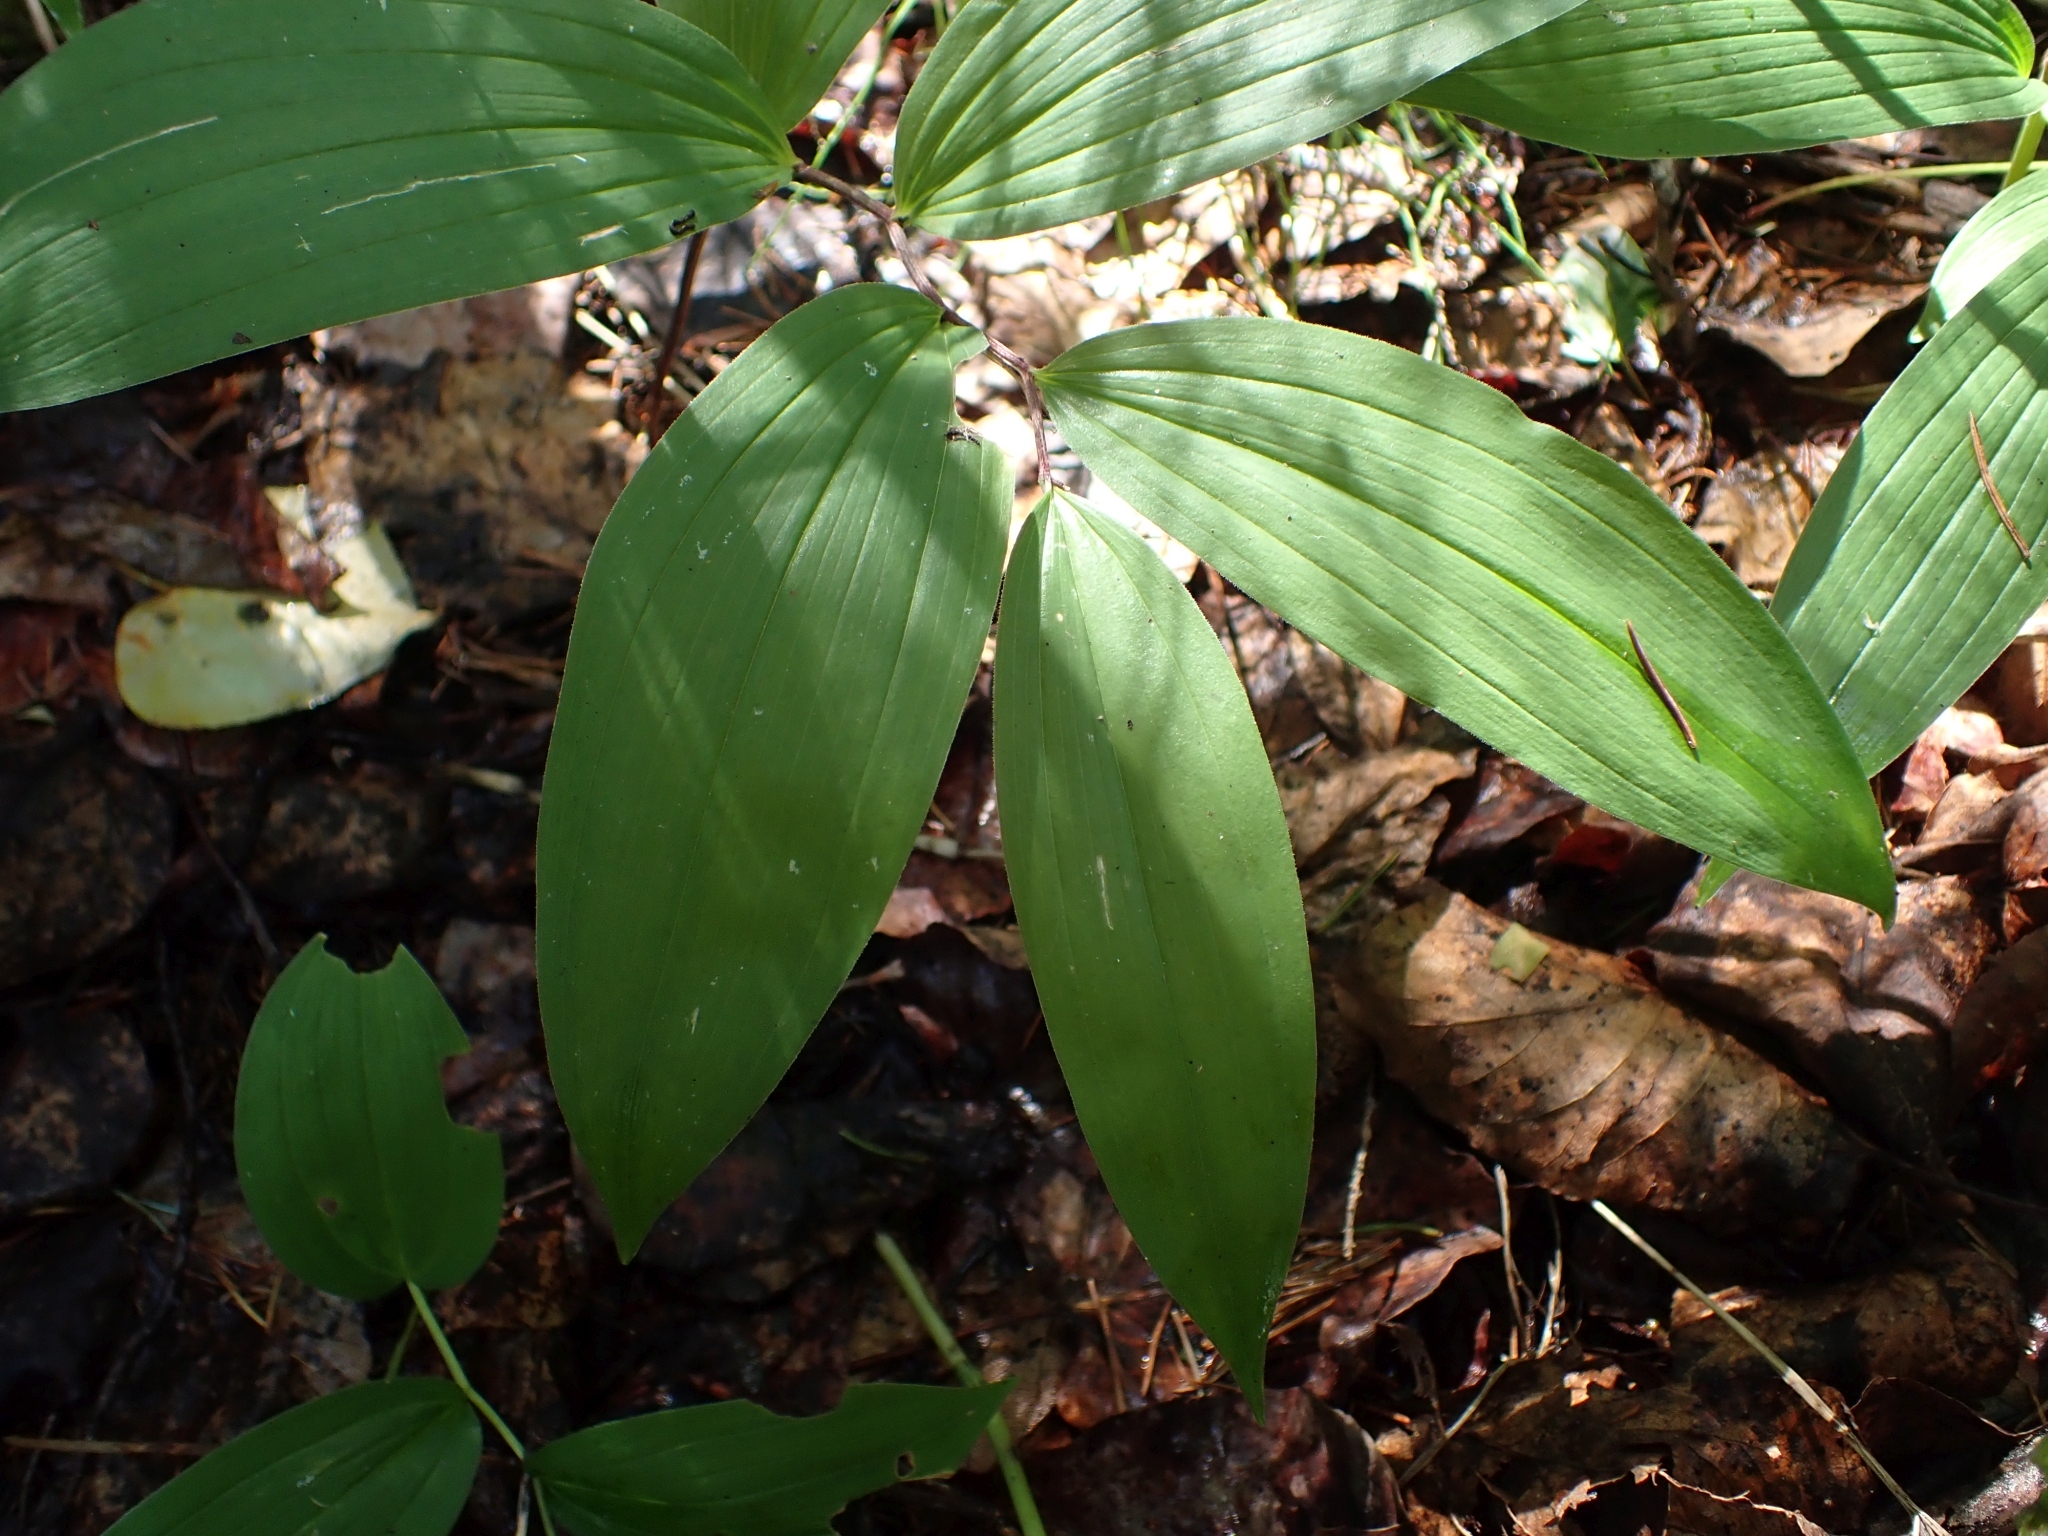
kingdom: Plantae
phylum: Tracheophyta
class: Liliopsida
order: Asparagales
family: Asparagaceae
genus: Maianthemum
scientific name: Maianthemum racemosum
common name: False spikenard
